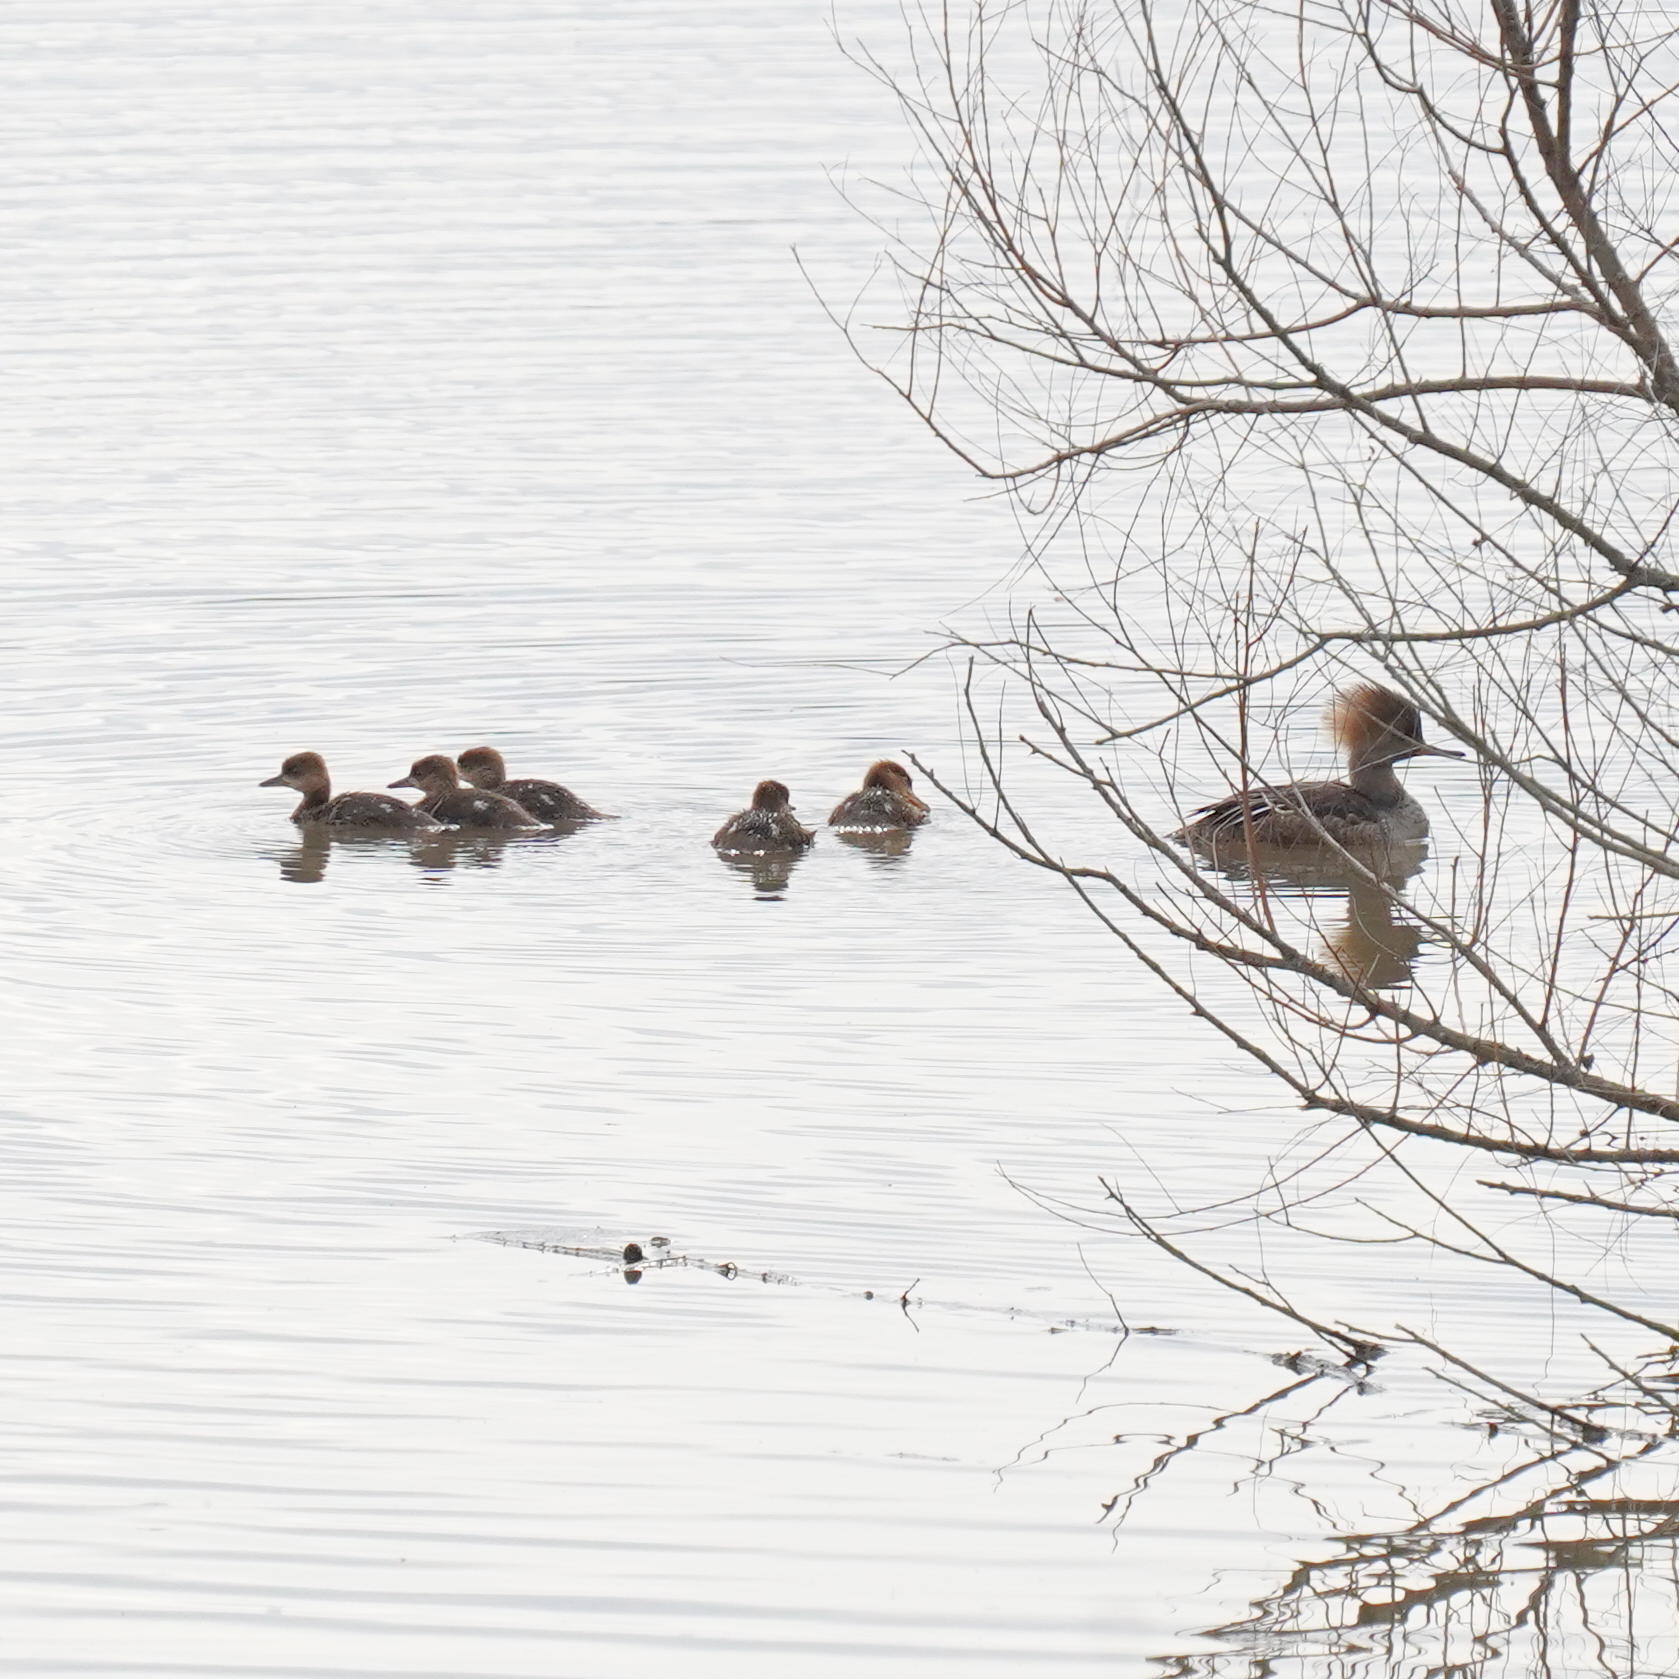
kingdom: Animalia
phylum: Chordata
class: Aves
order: Anseriformes
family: Anatidae
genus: Lophodytes
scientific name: Lophodytes cucullatus
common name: Hooded merganser
